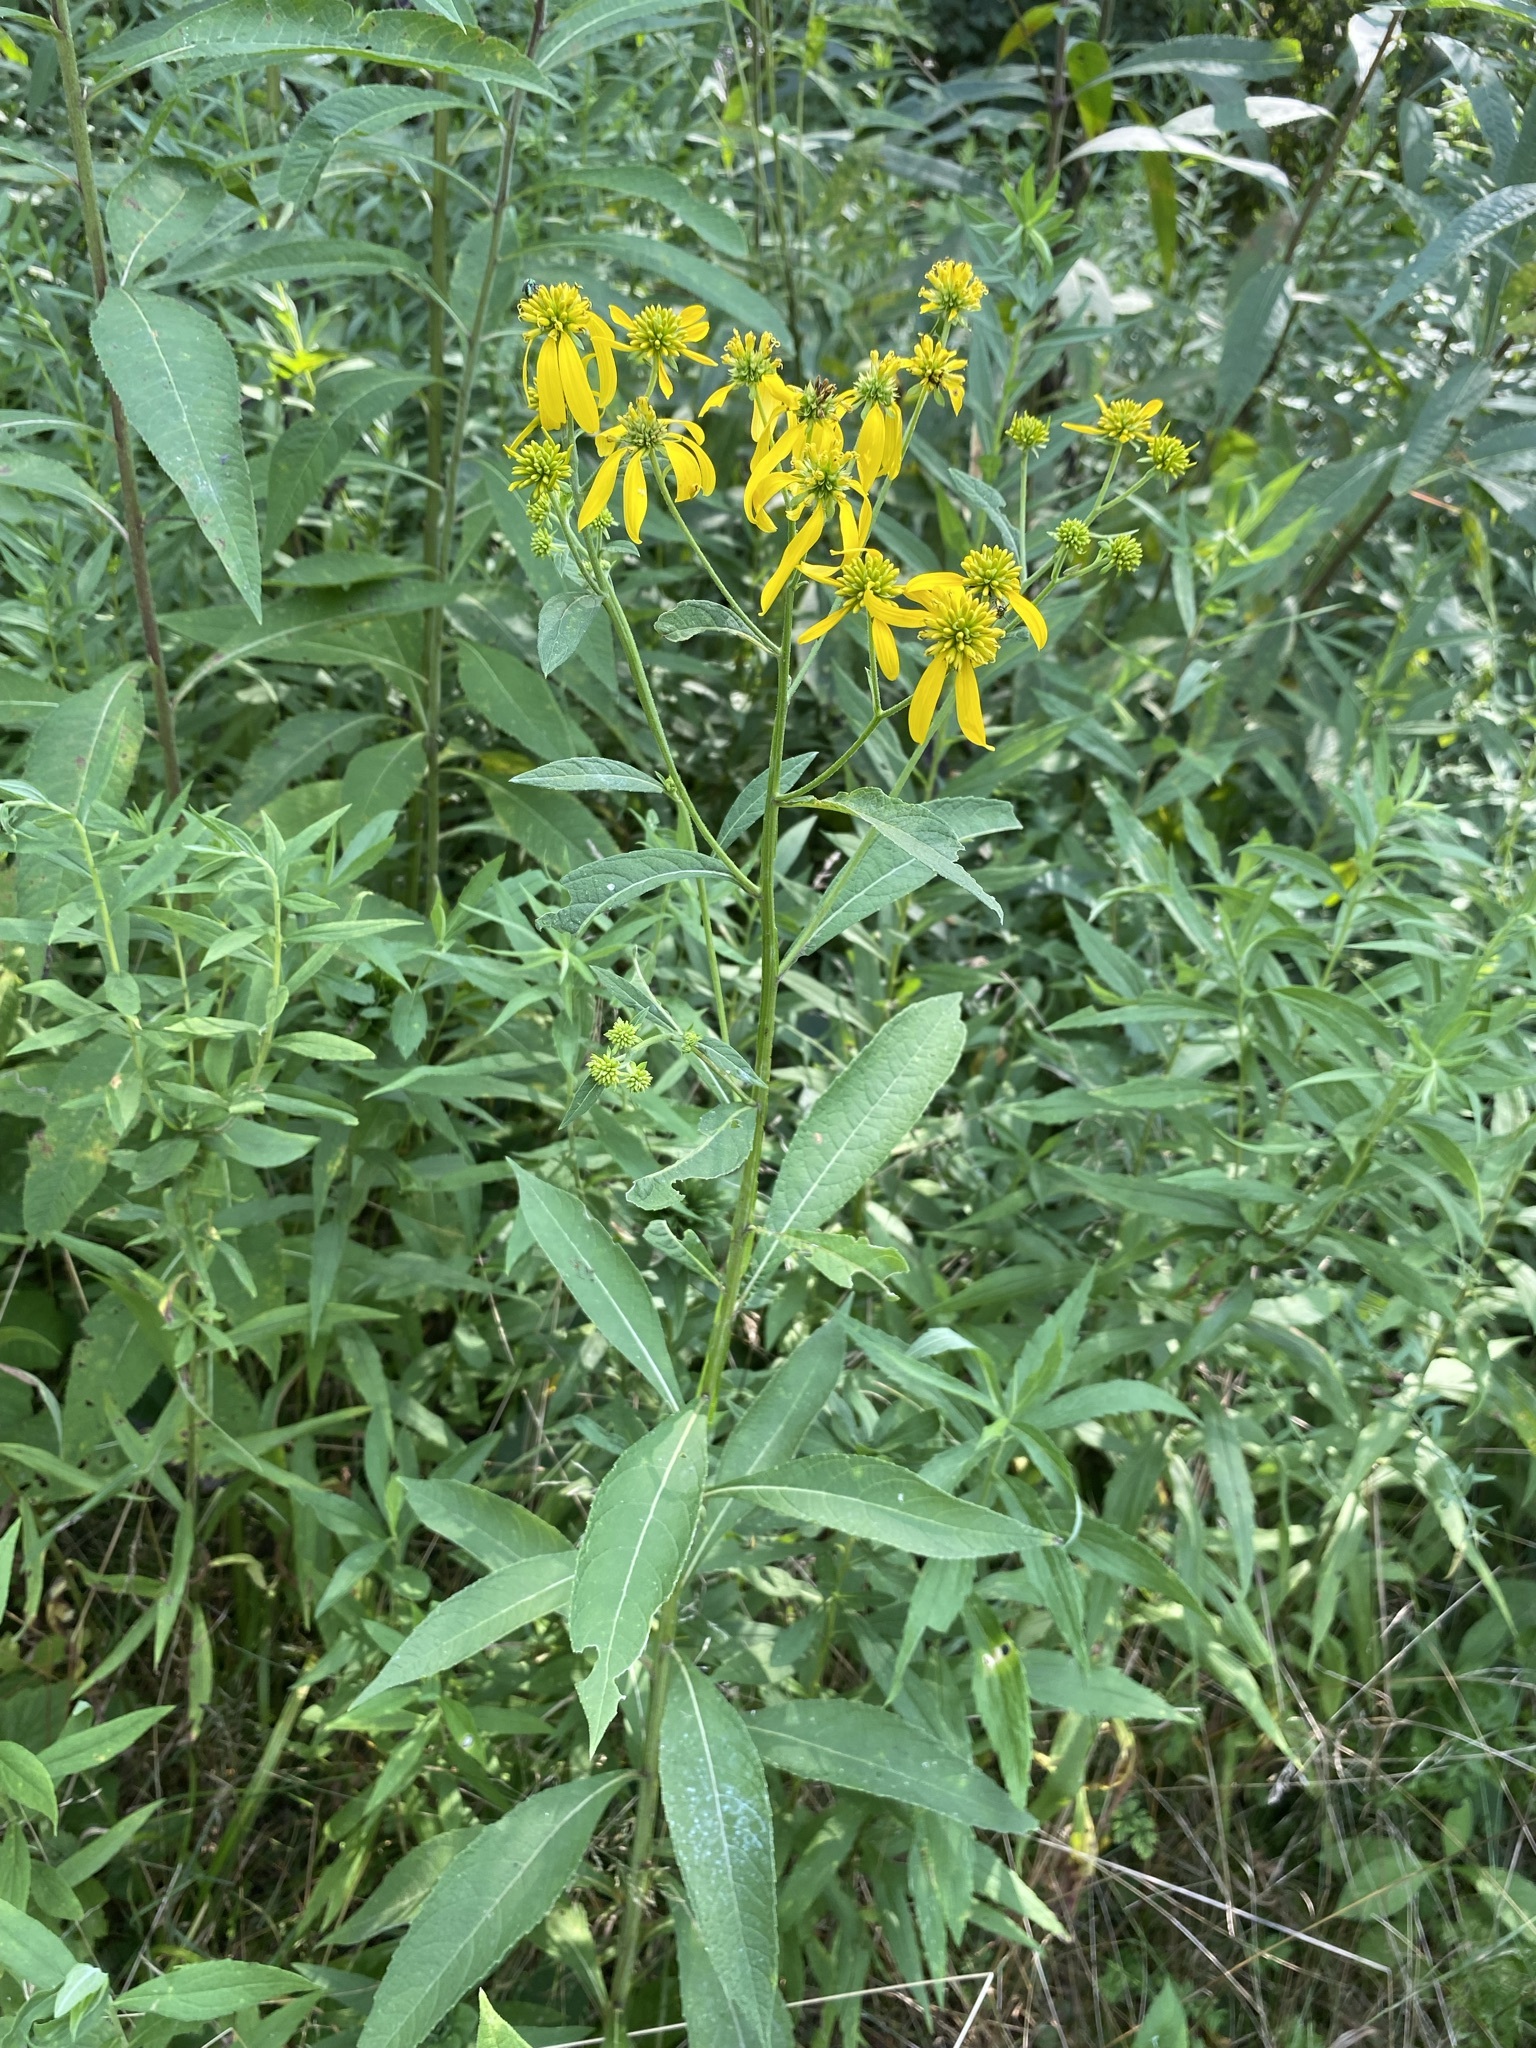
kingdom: Plantae
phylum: Tracheophyta
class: Magnoliopsida
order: Asterales
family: Asteraceae
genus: Verbesina
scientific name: Verbesina alternifolia
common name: Wingstem
